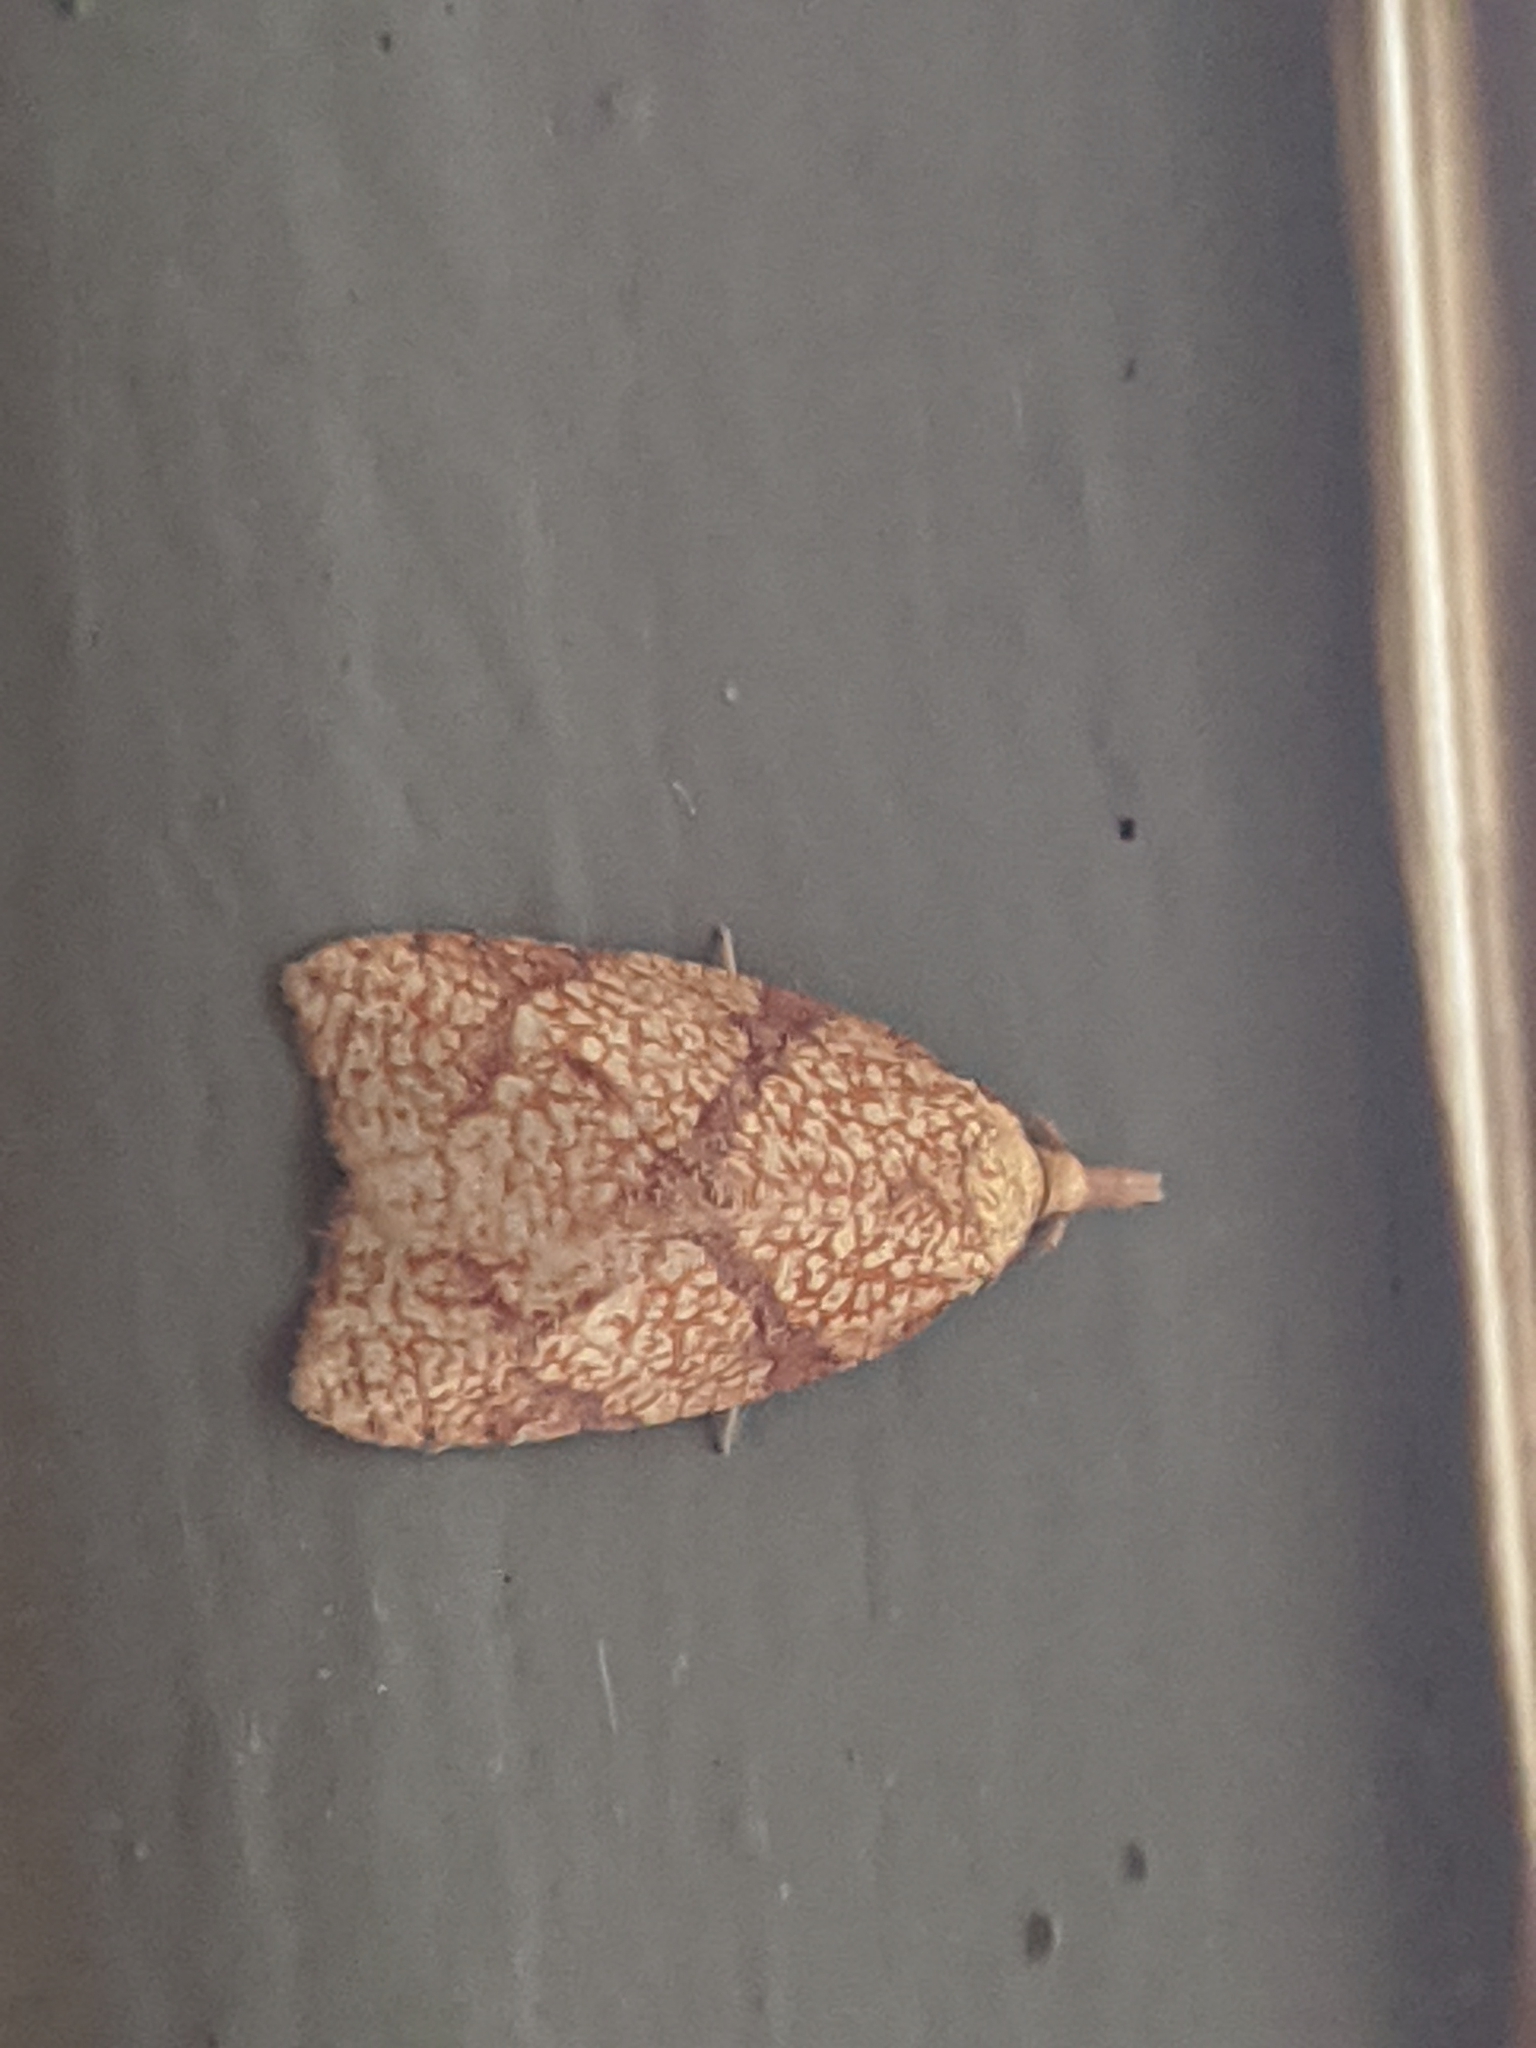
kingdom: Animalia
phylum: Arthropoda
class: Insecta
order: Lepidoptera
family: Tortricidae
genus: Cenopis
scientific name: Cenopis reticulatana
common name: Reticulated fruitworm moth
